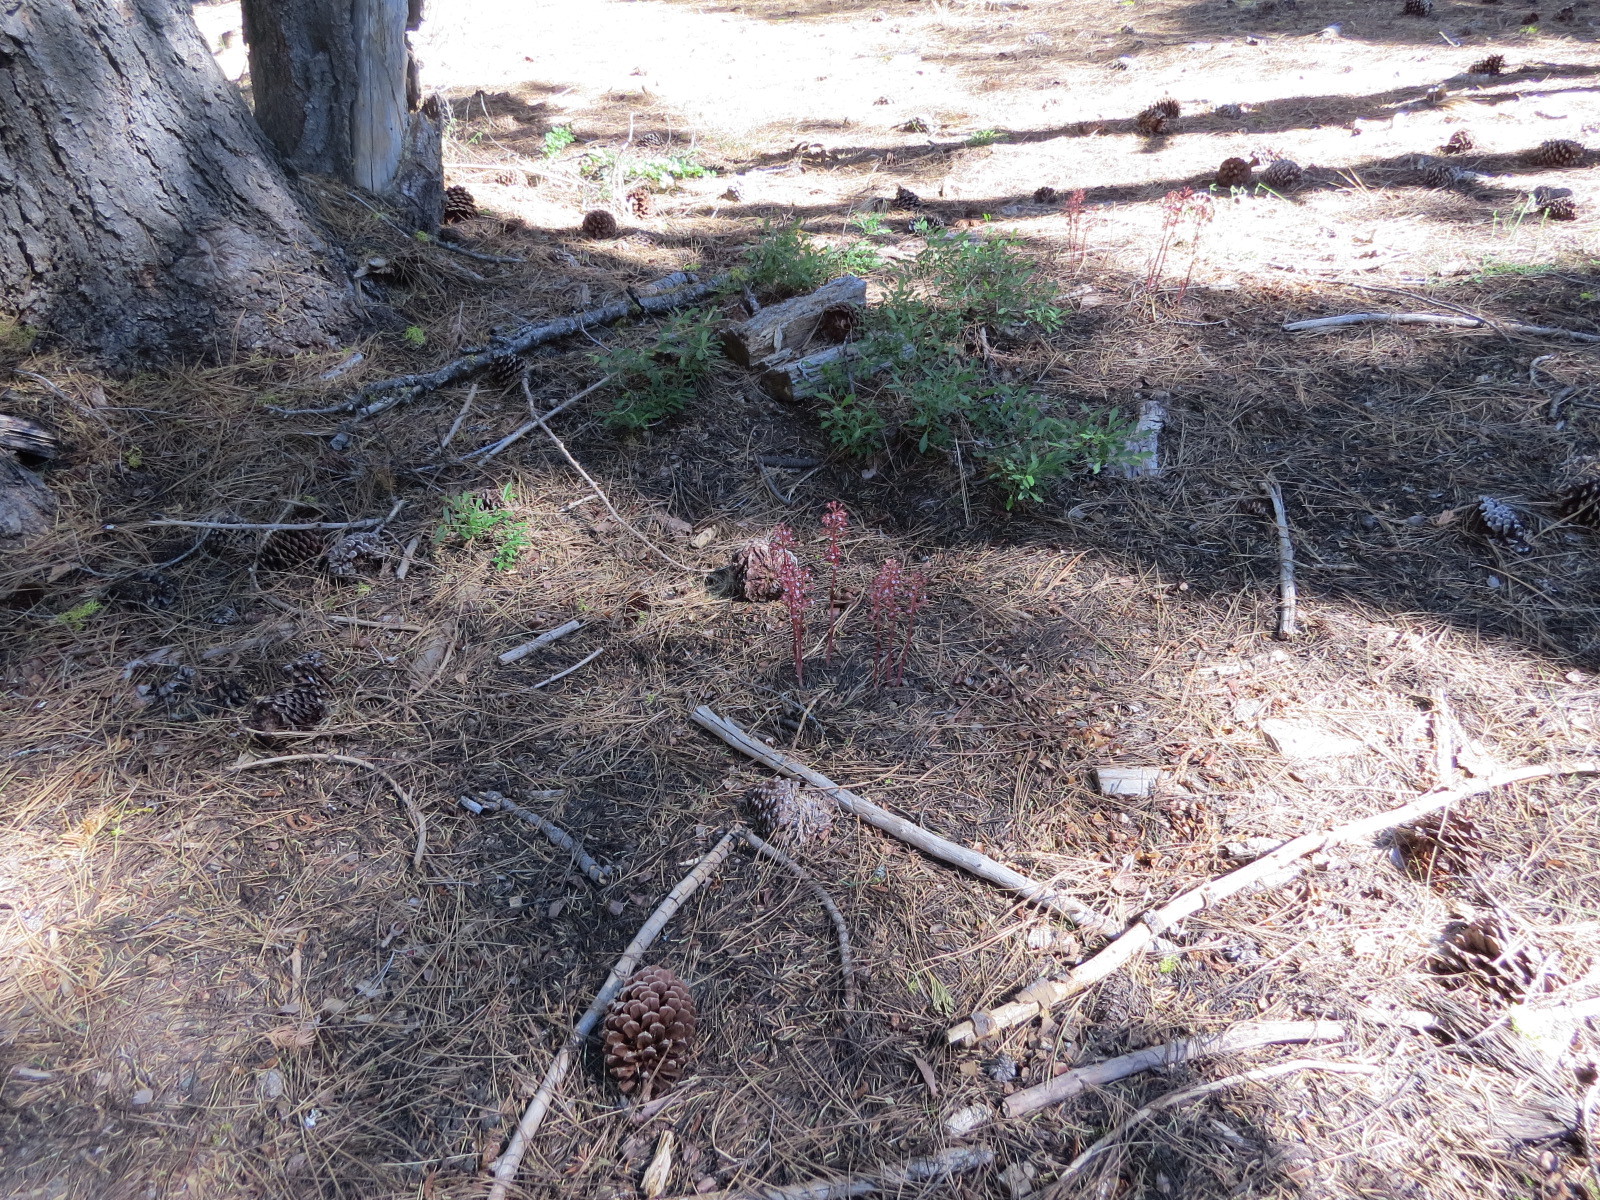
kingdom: Plantae
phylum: Tracheophyta
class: Liliopsida
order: Asparagales
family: Orchidaceae
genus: Corallorhiza
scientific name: Corallorhiza maculata
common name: Spotted coralroot
